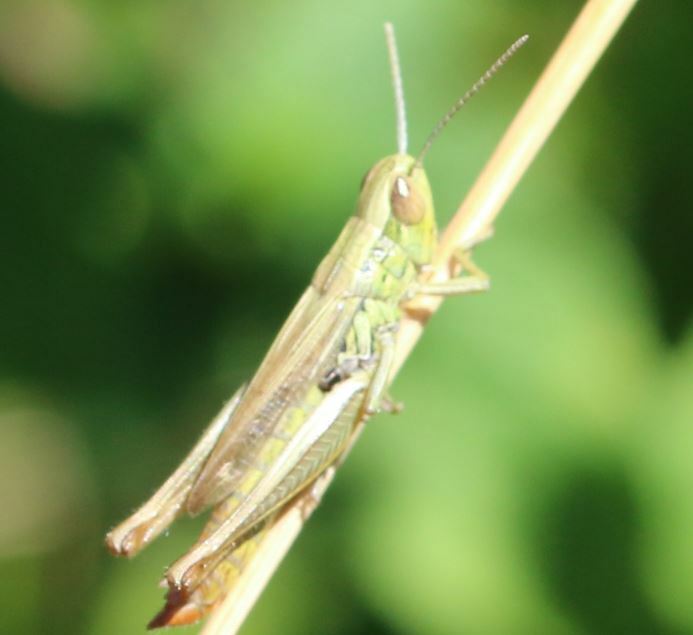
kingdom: Animalia
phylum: Arthropoda
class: Insecta
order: Orthoptera
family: Acrididae
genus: Euchorthippus
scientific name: Euchorthippus declivus
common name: Common straw grasshopper
